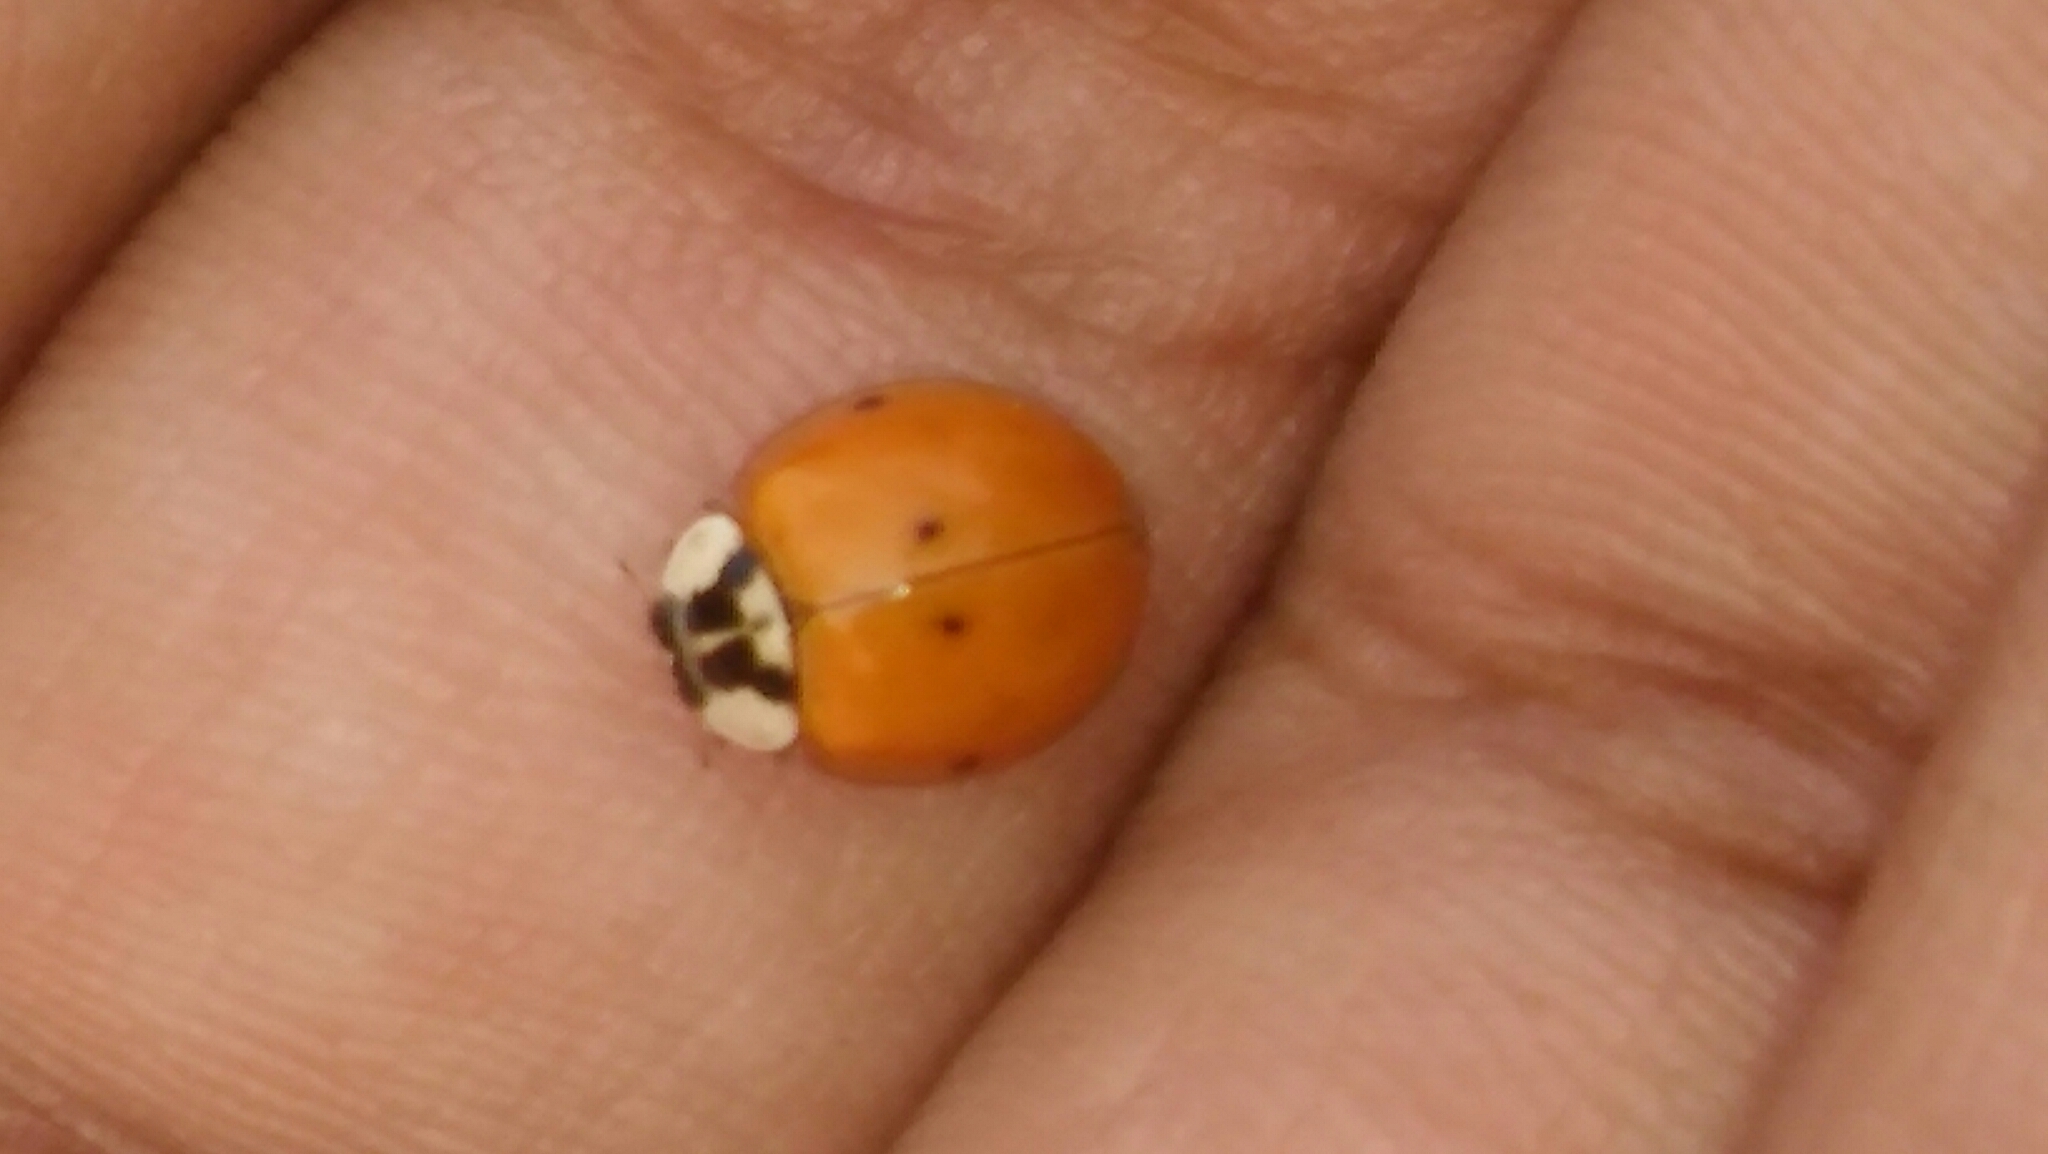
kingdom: Animalia
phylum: Arthropoda
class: Insecta
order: Coleoptera
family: Coccinellidae
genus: Harmonia
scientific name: Harmonia axyridis
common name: Harlequin ladybird
